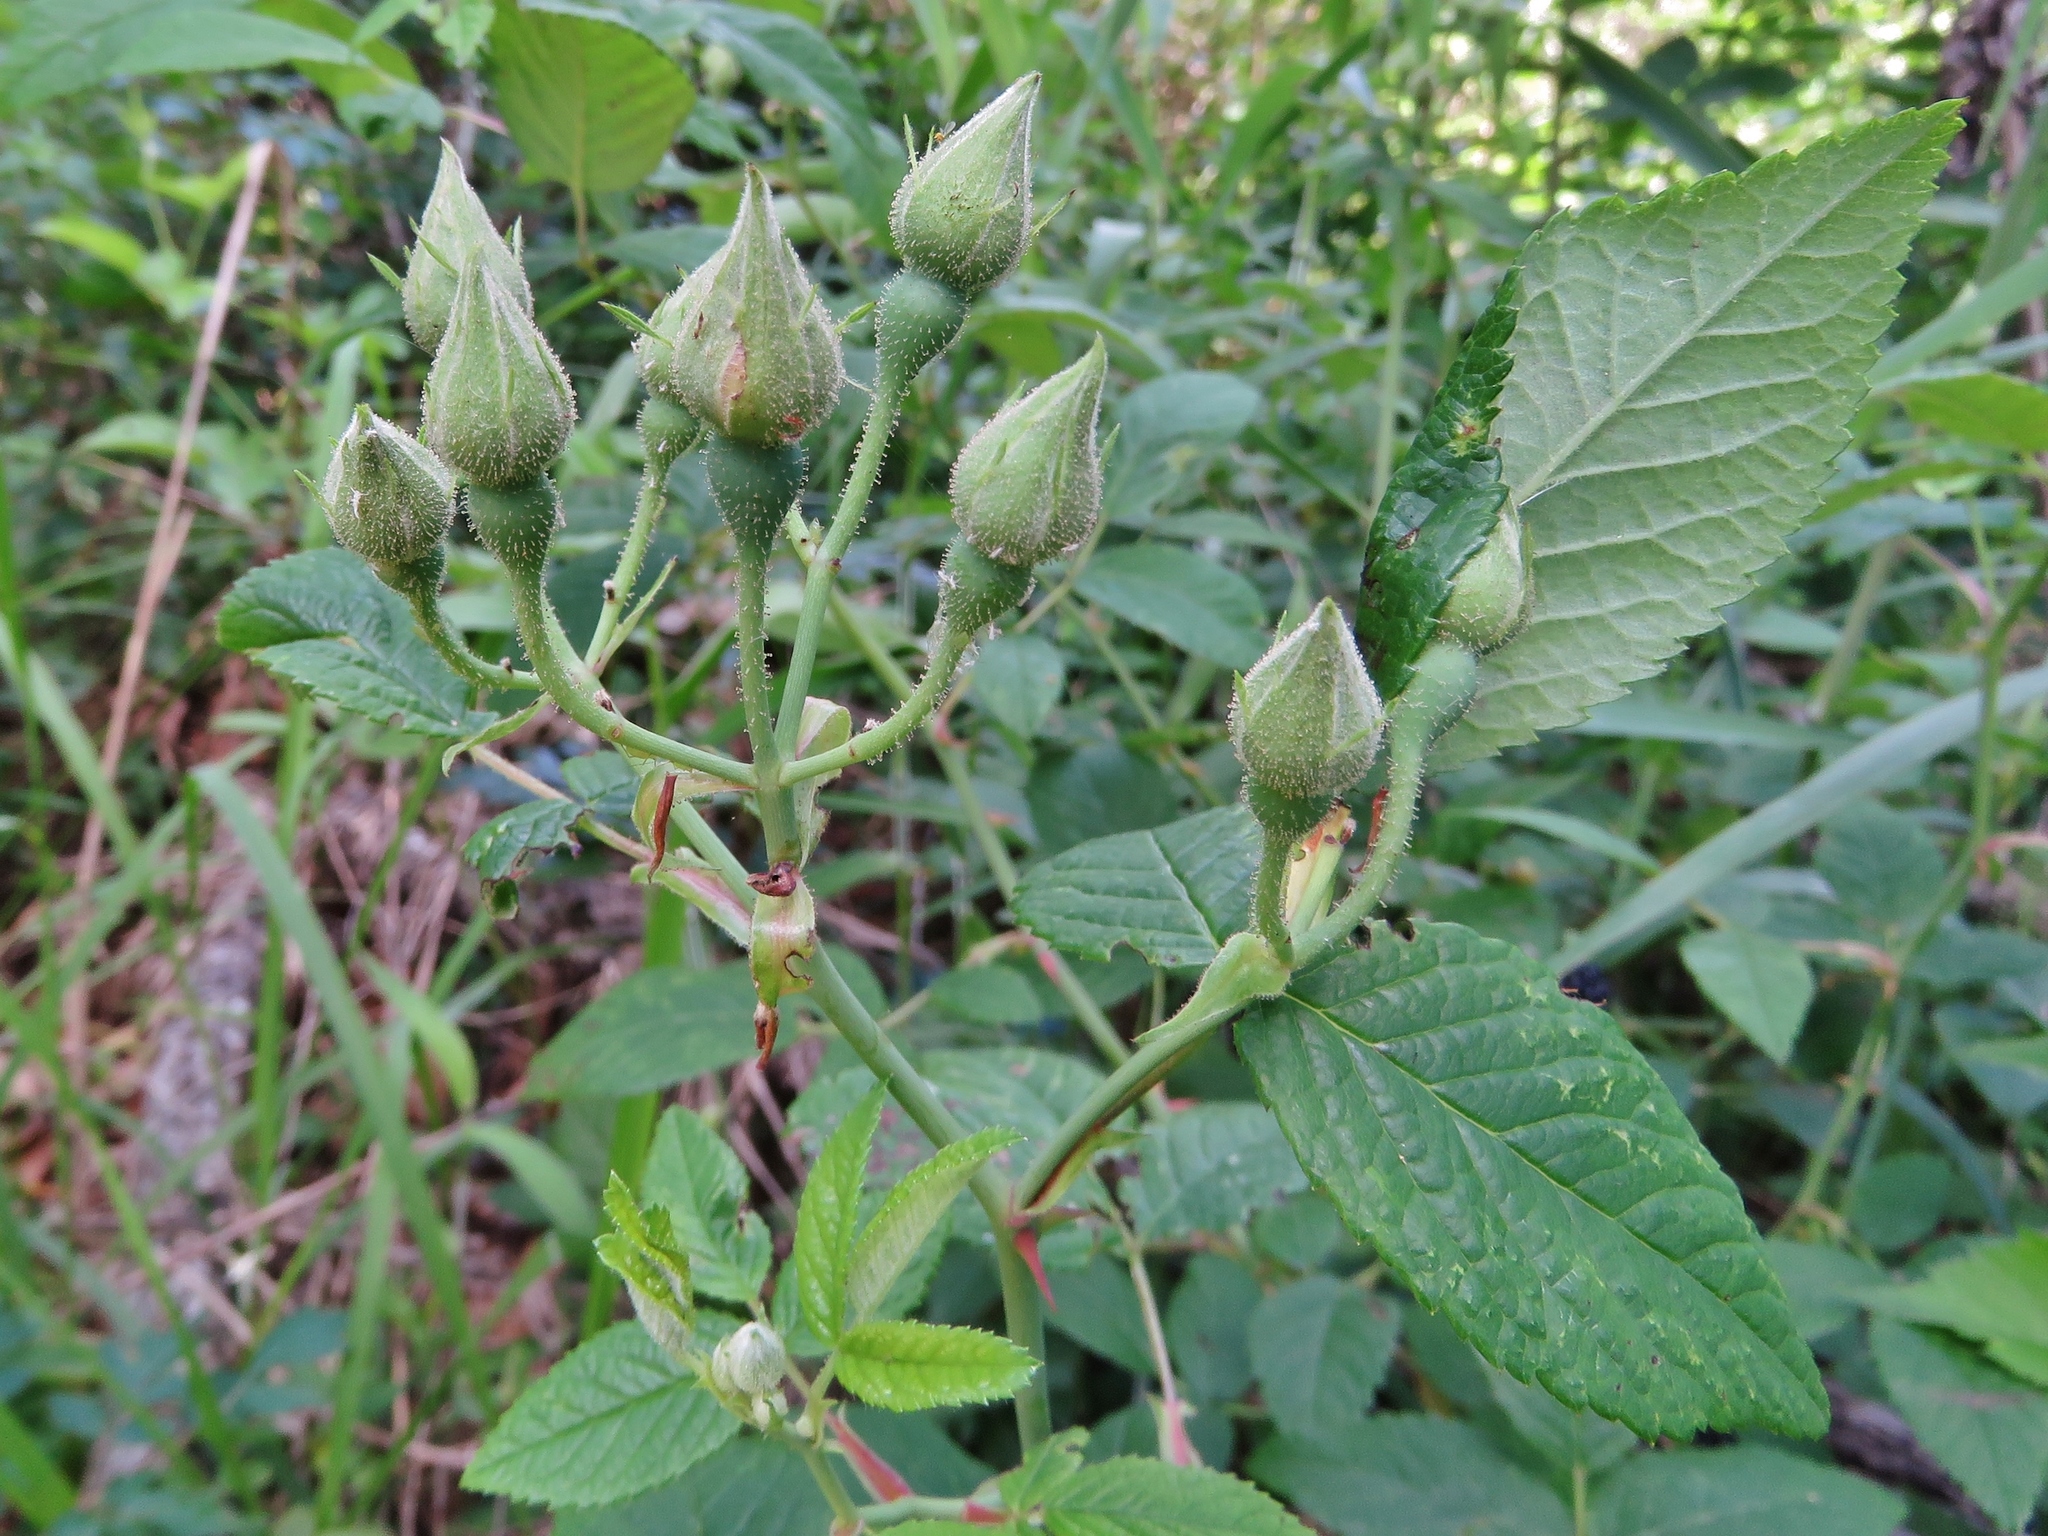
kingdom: Plantae
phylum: Tracheophyta
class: Magnoliopsida
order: Rosales
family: Rosaceae
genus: Rosa
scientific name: Rosa setigera
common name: Prairie rose
